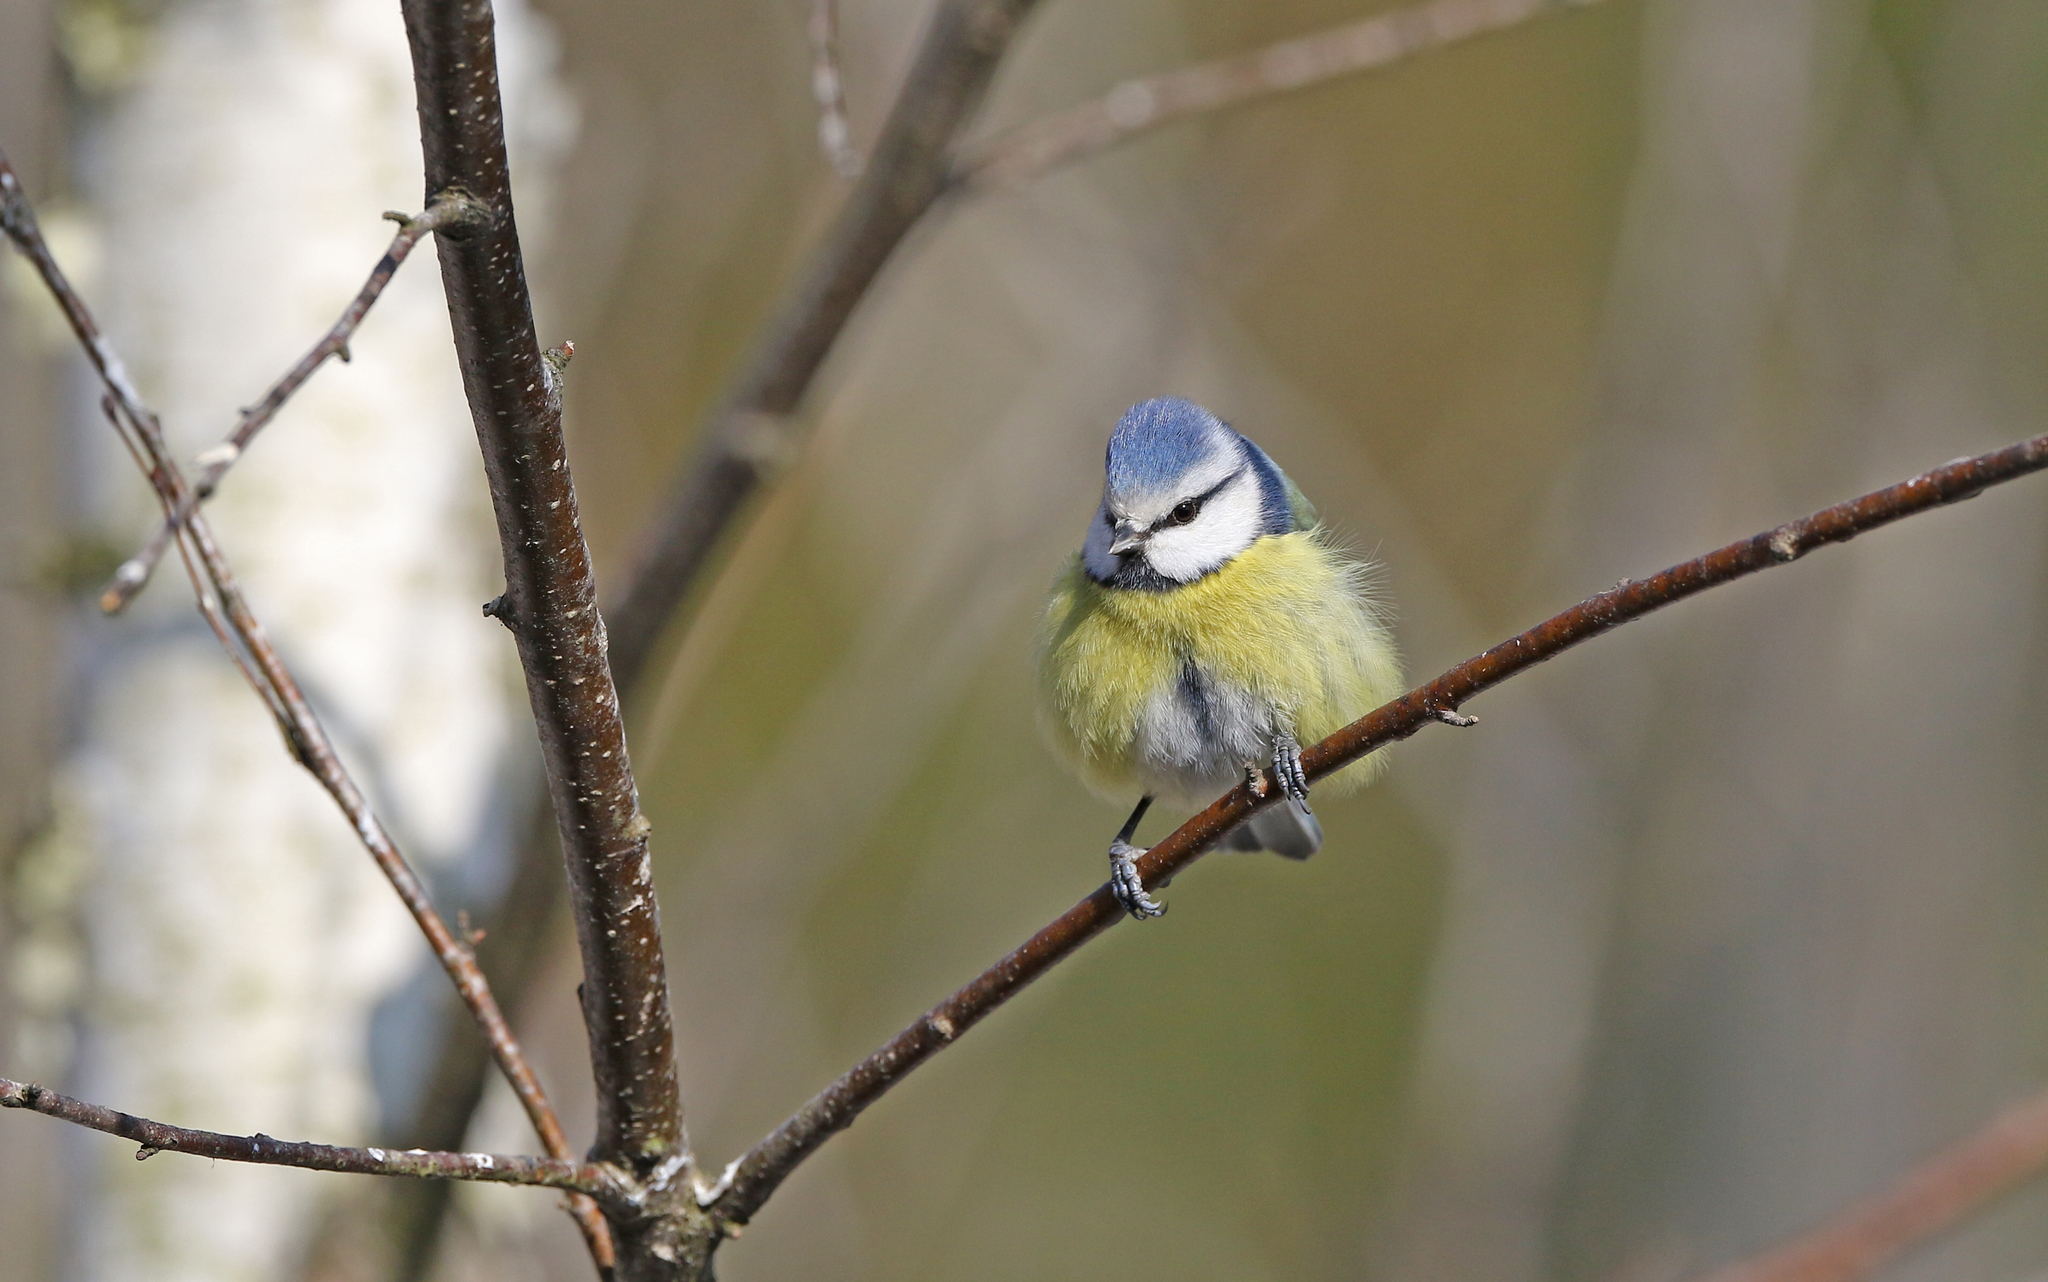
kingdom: Animalia
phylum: Chordata
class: Aves
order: Passeriformes
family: Paridae
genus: Cyanistes
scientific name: Cyanistes caeruleus
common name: Eurasian blue tit
